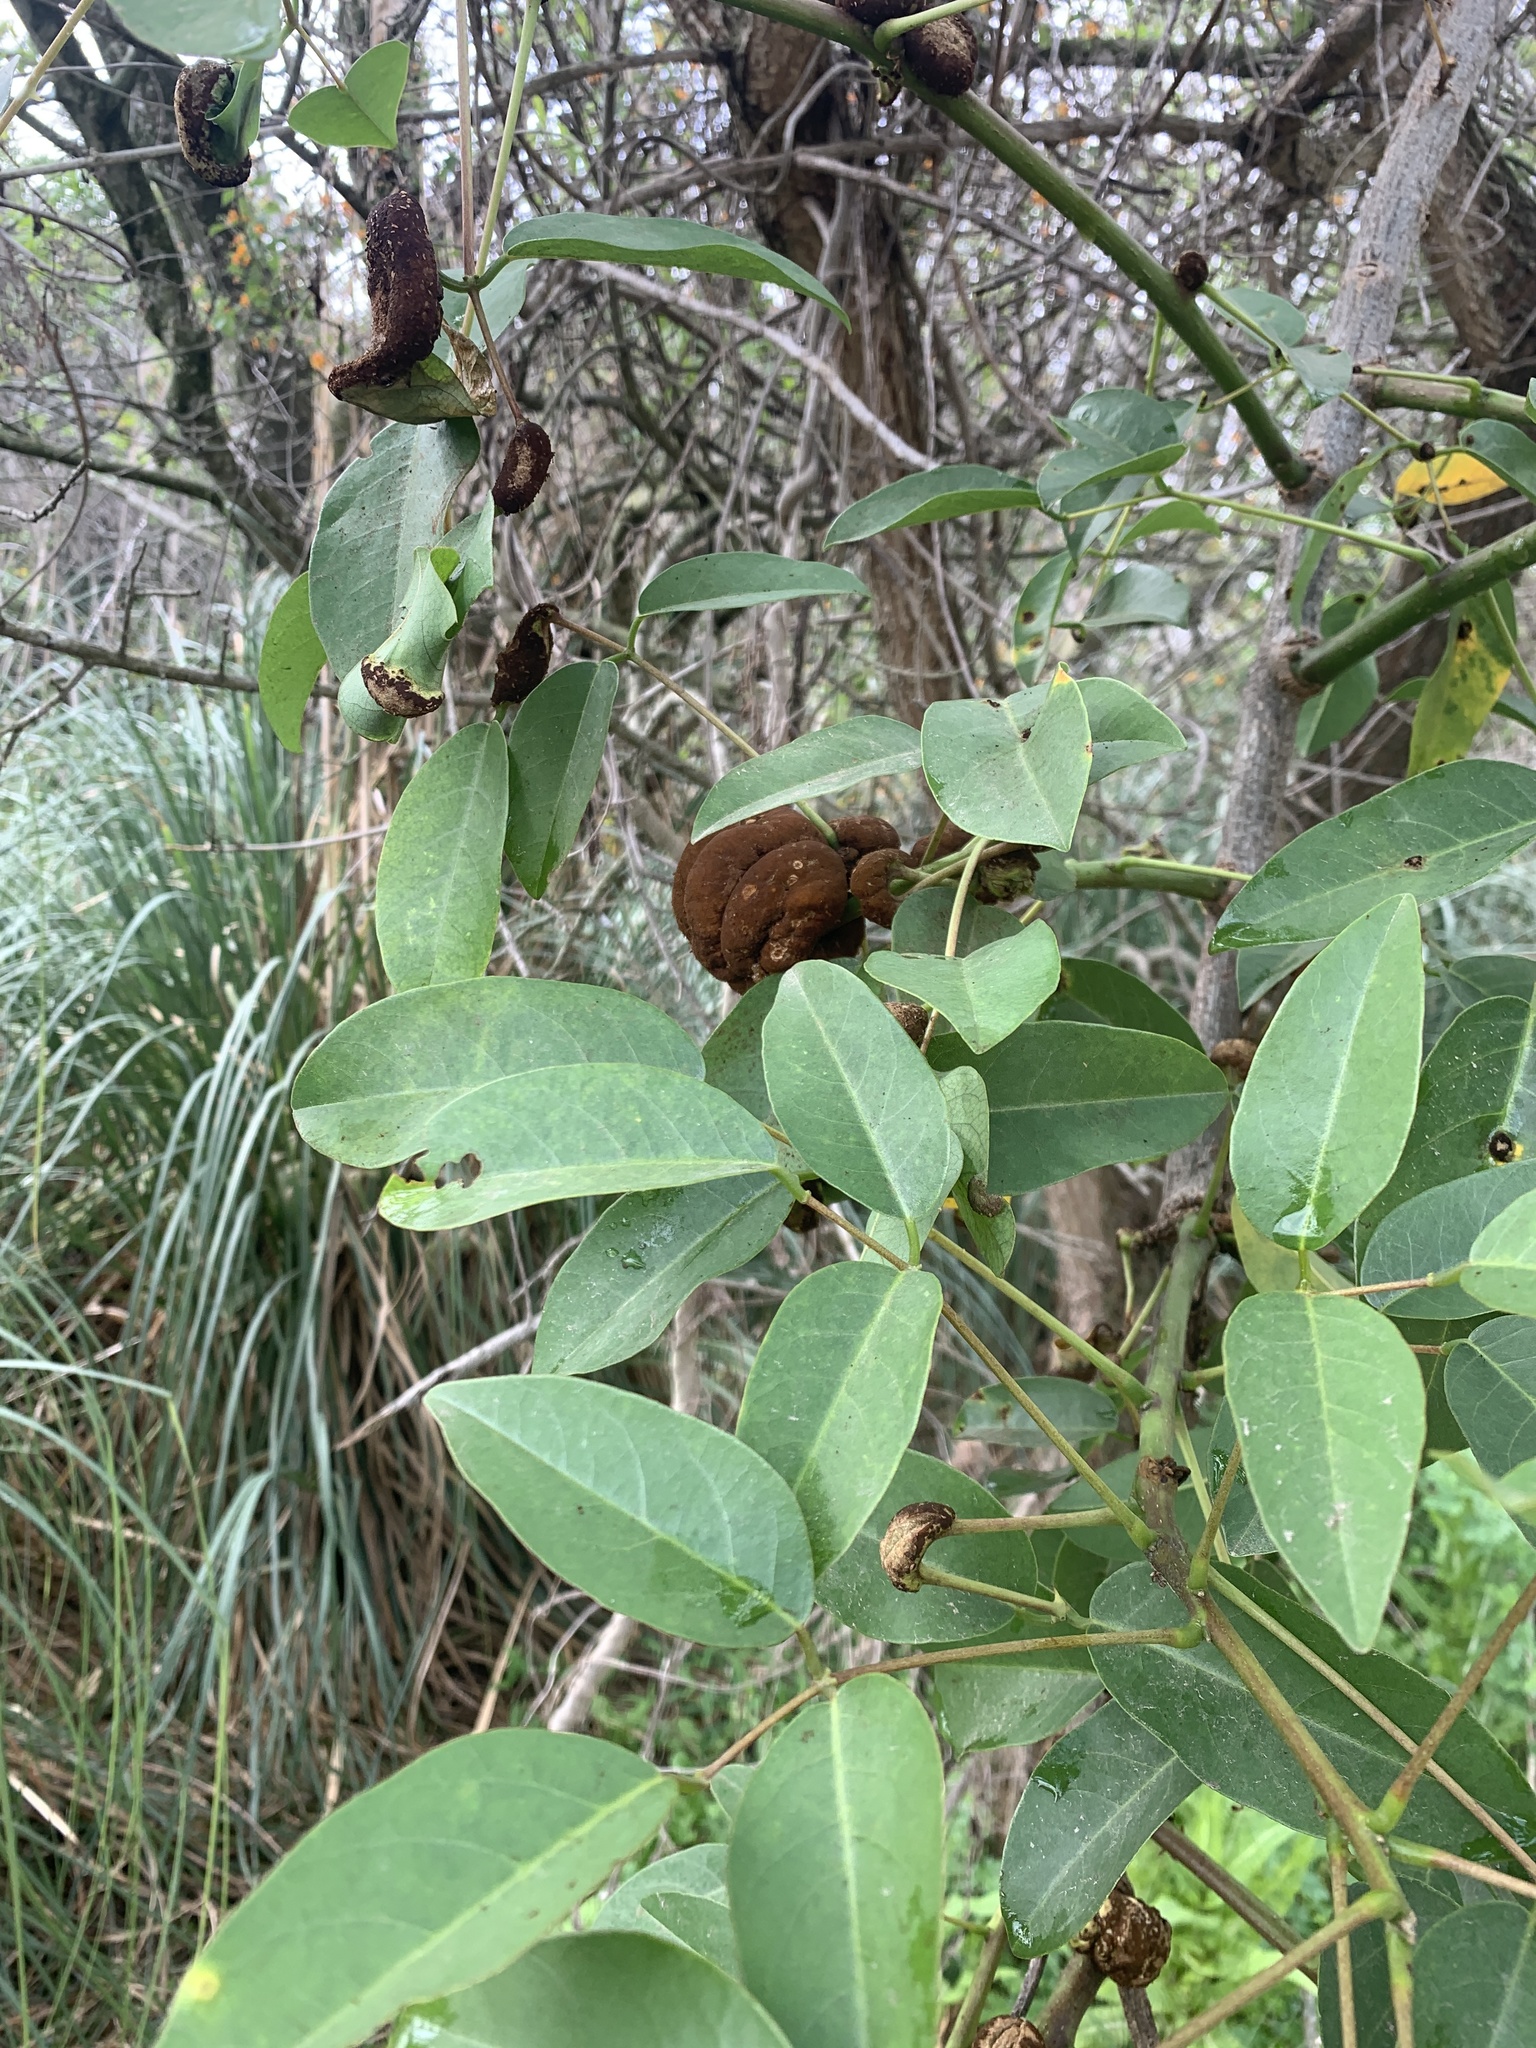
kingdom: Fungi
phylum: Basidiomycota
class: Pucciniomycetes
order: Pucciniales
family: Raveneliaceae
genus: Ravenelia
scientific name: Ravenelia platensis
